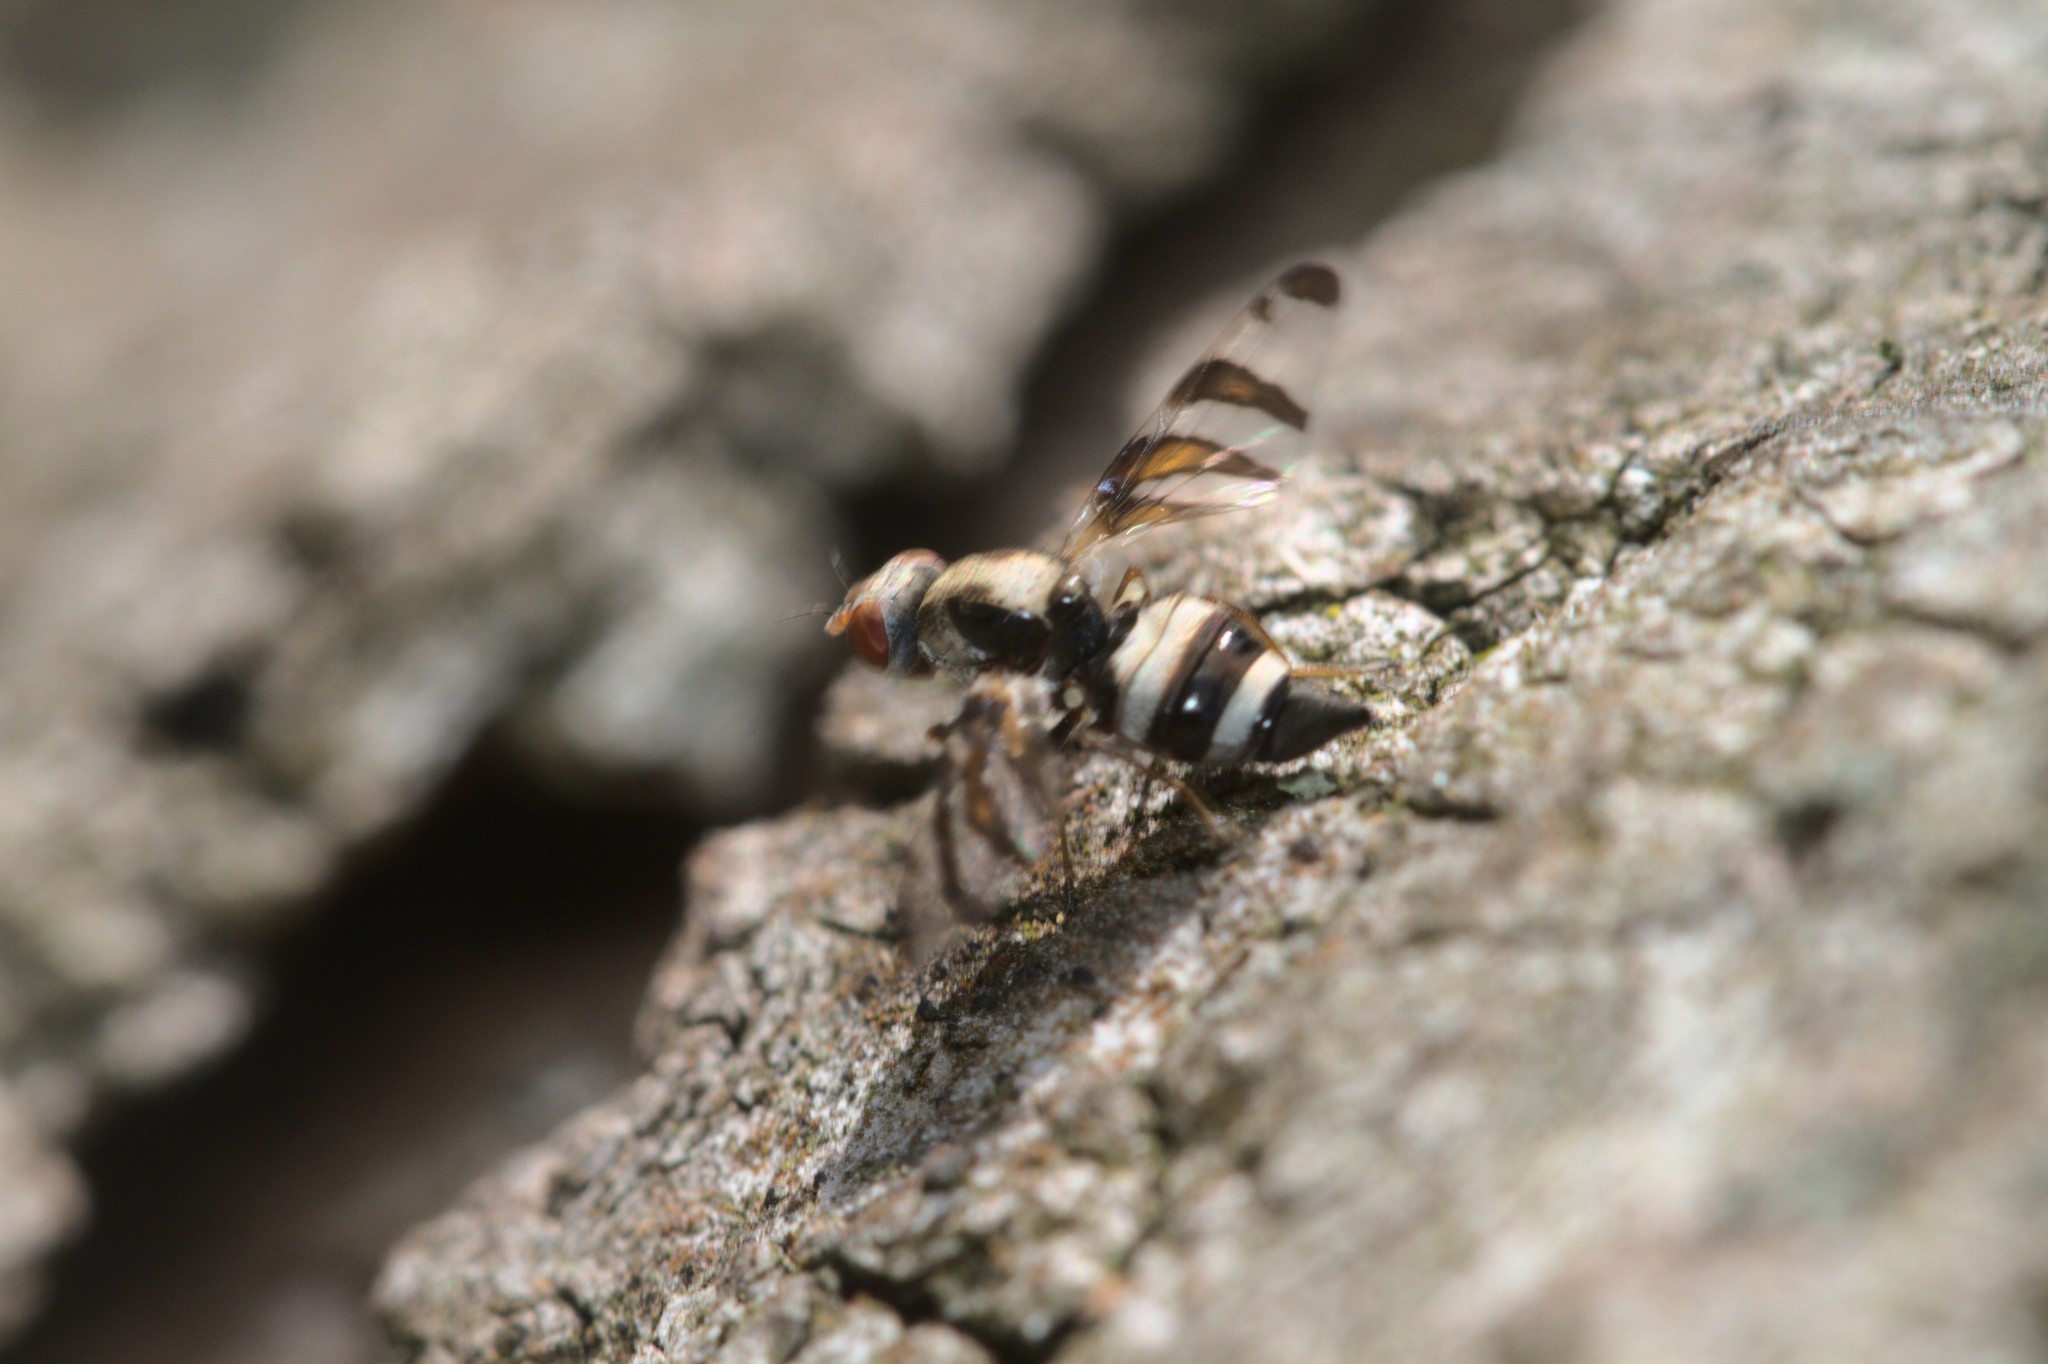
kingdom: Animalia
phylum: Arthropoda
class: Insecta
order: Diptera
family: Ulidiidae
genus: Myennis
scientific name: Myennis octopunctata
